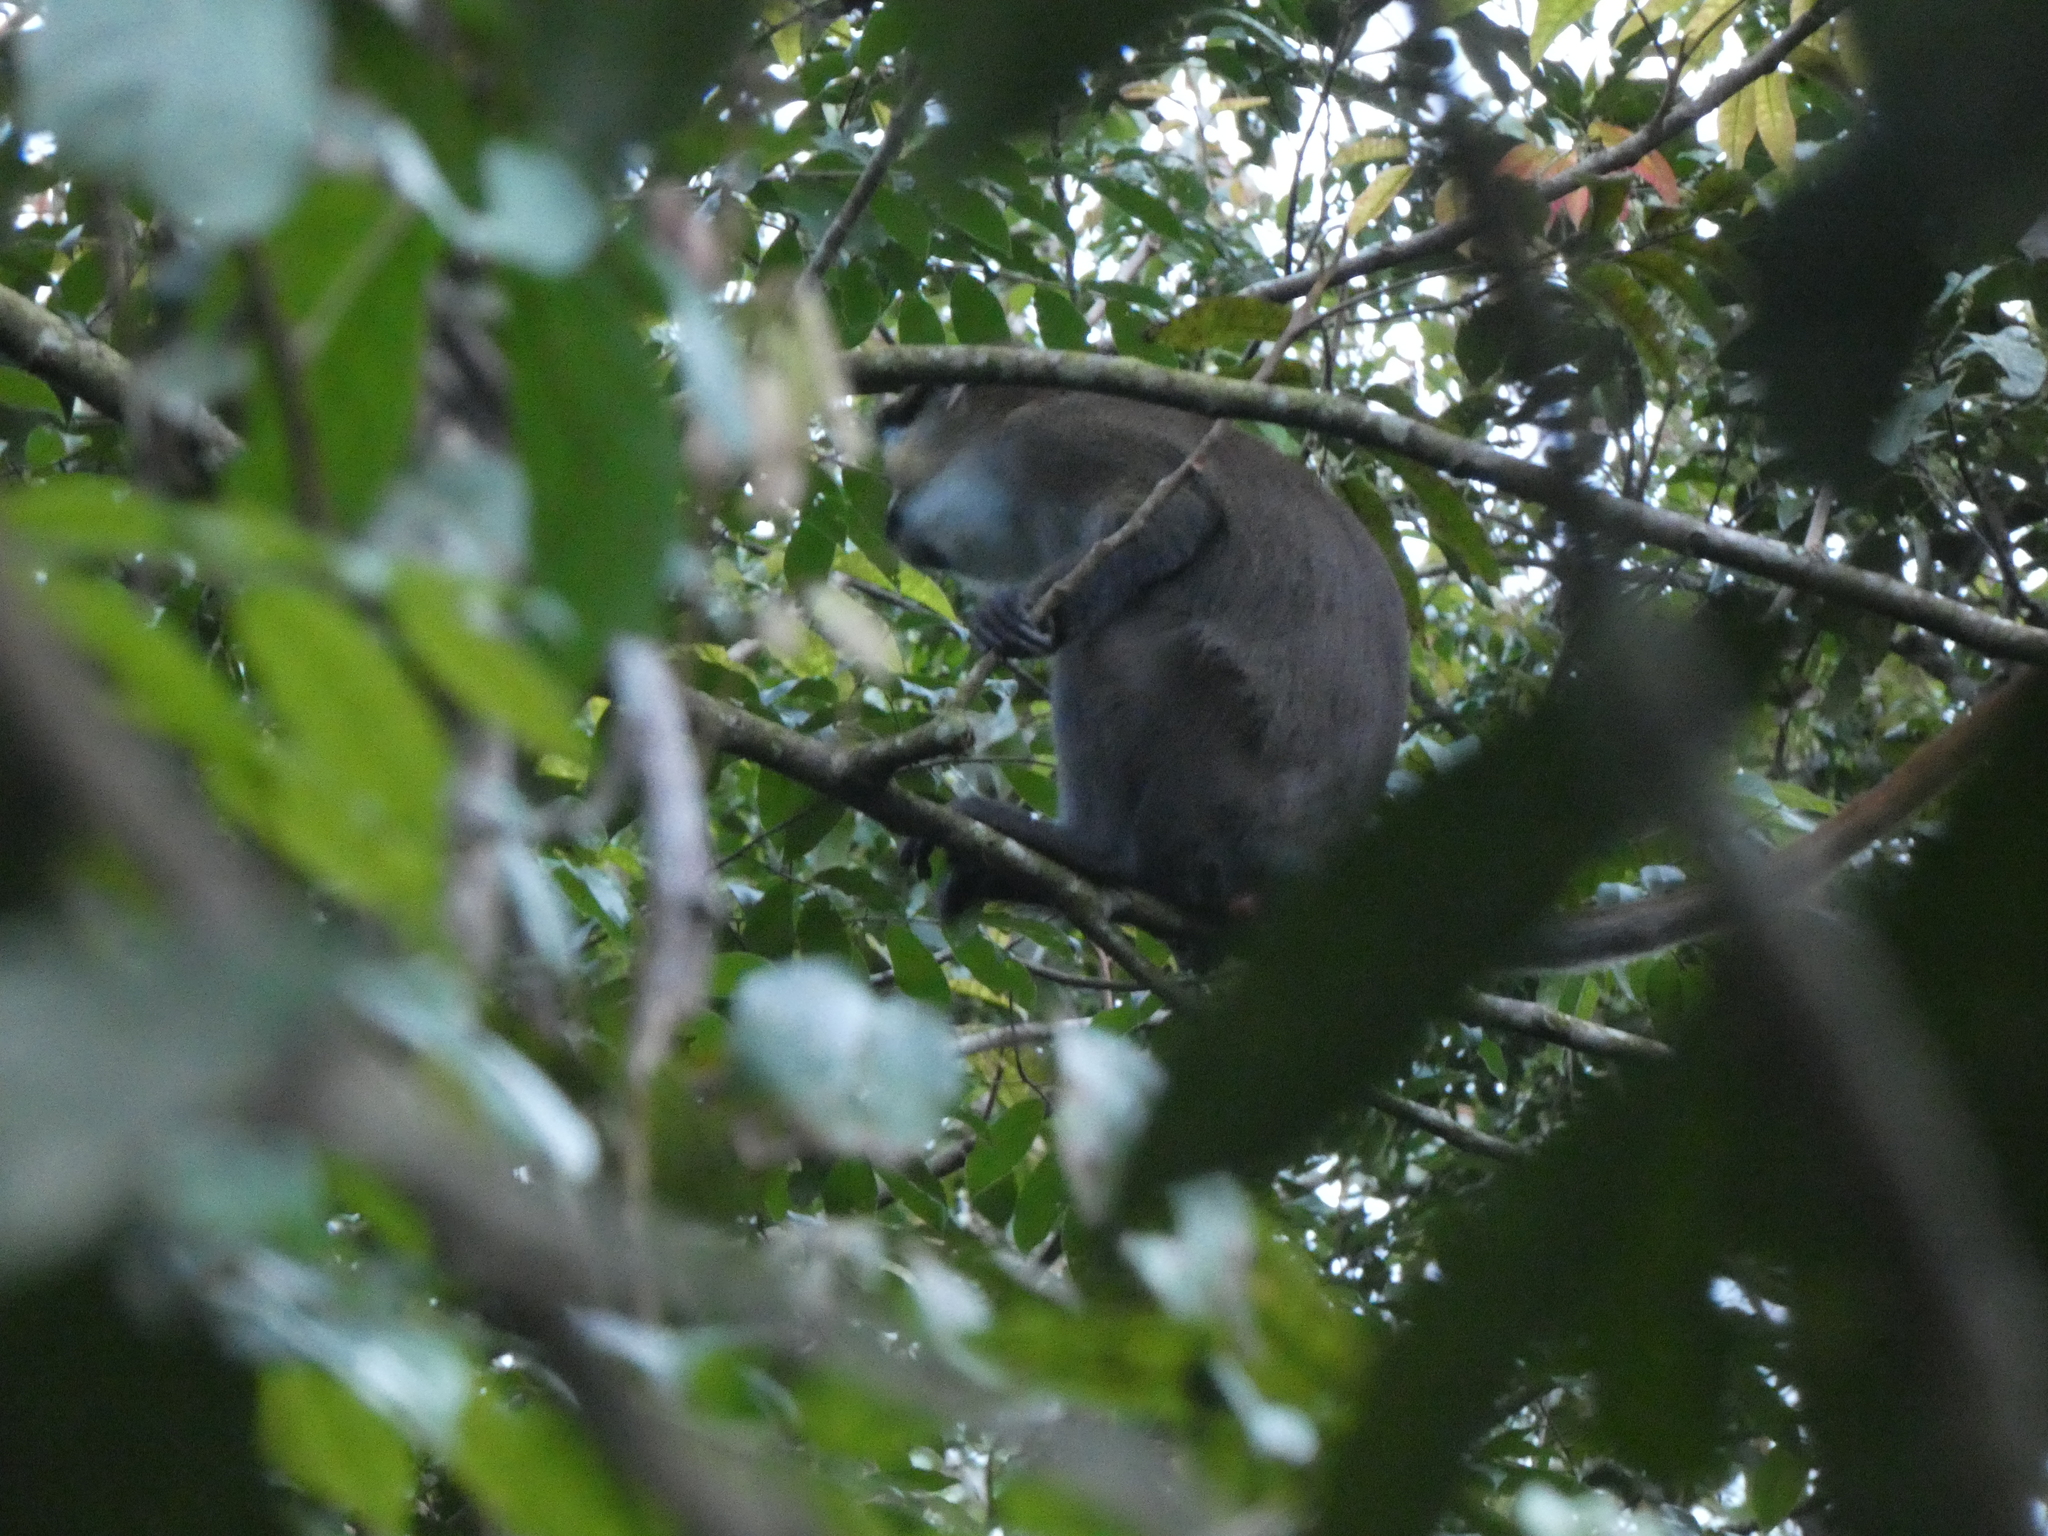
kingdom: Animalia
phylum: Chordata
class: Mammalia
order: Primates
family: Cercopithecidae
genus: Cercopithecus
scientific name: Cercopithecus cephus
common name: Moustached guenon
